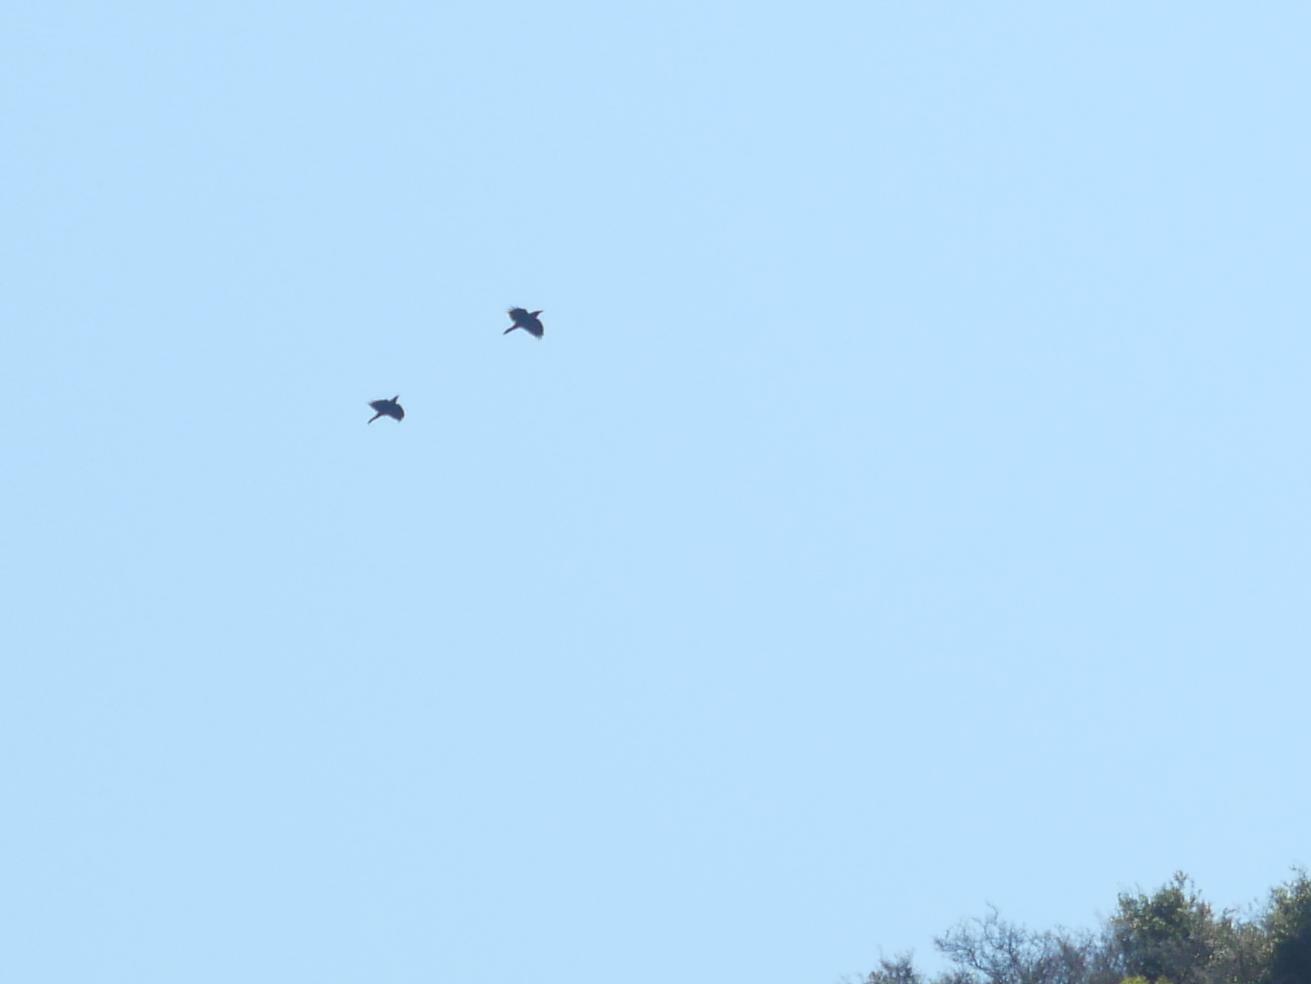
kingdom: Animalia
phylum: Chordata
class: Aves
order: Passeriformes
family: Corvidae
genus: Corvus
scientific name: Corvus corax
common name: Common raven
